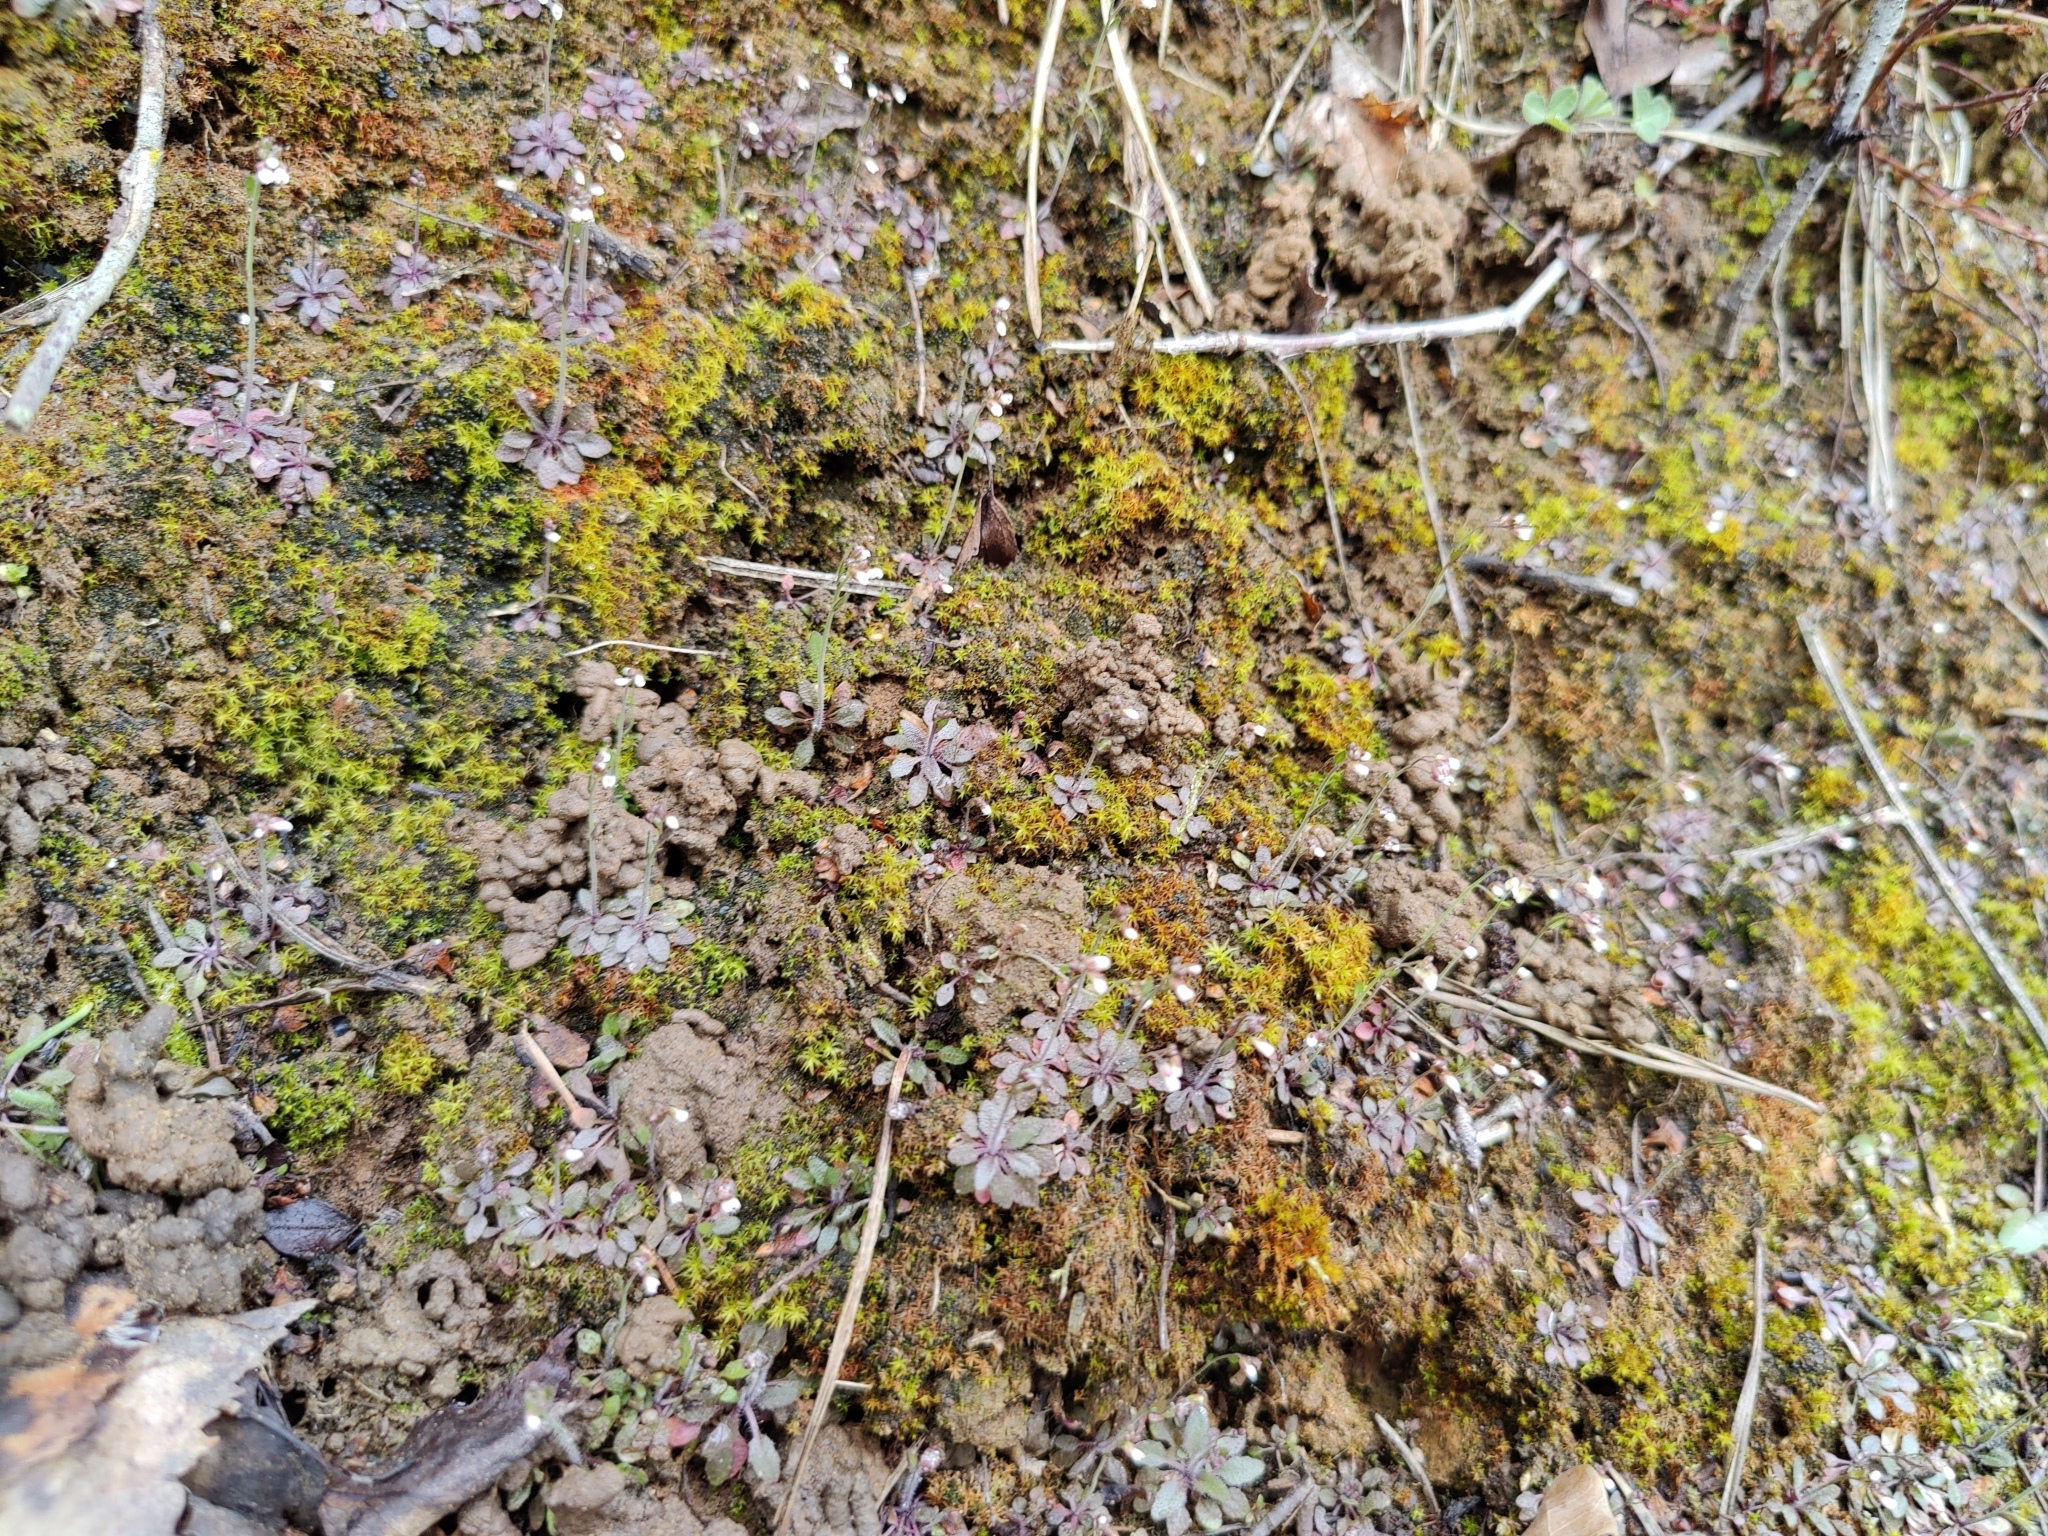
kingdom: Plantae
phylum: Tracheophyta
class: Magnoliopsida
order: Brassicales
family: Brassicaceae
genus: Draba
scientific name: Draba verna
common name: Spring draba
